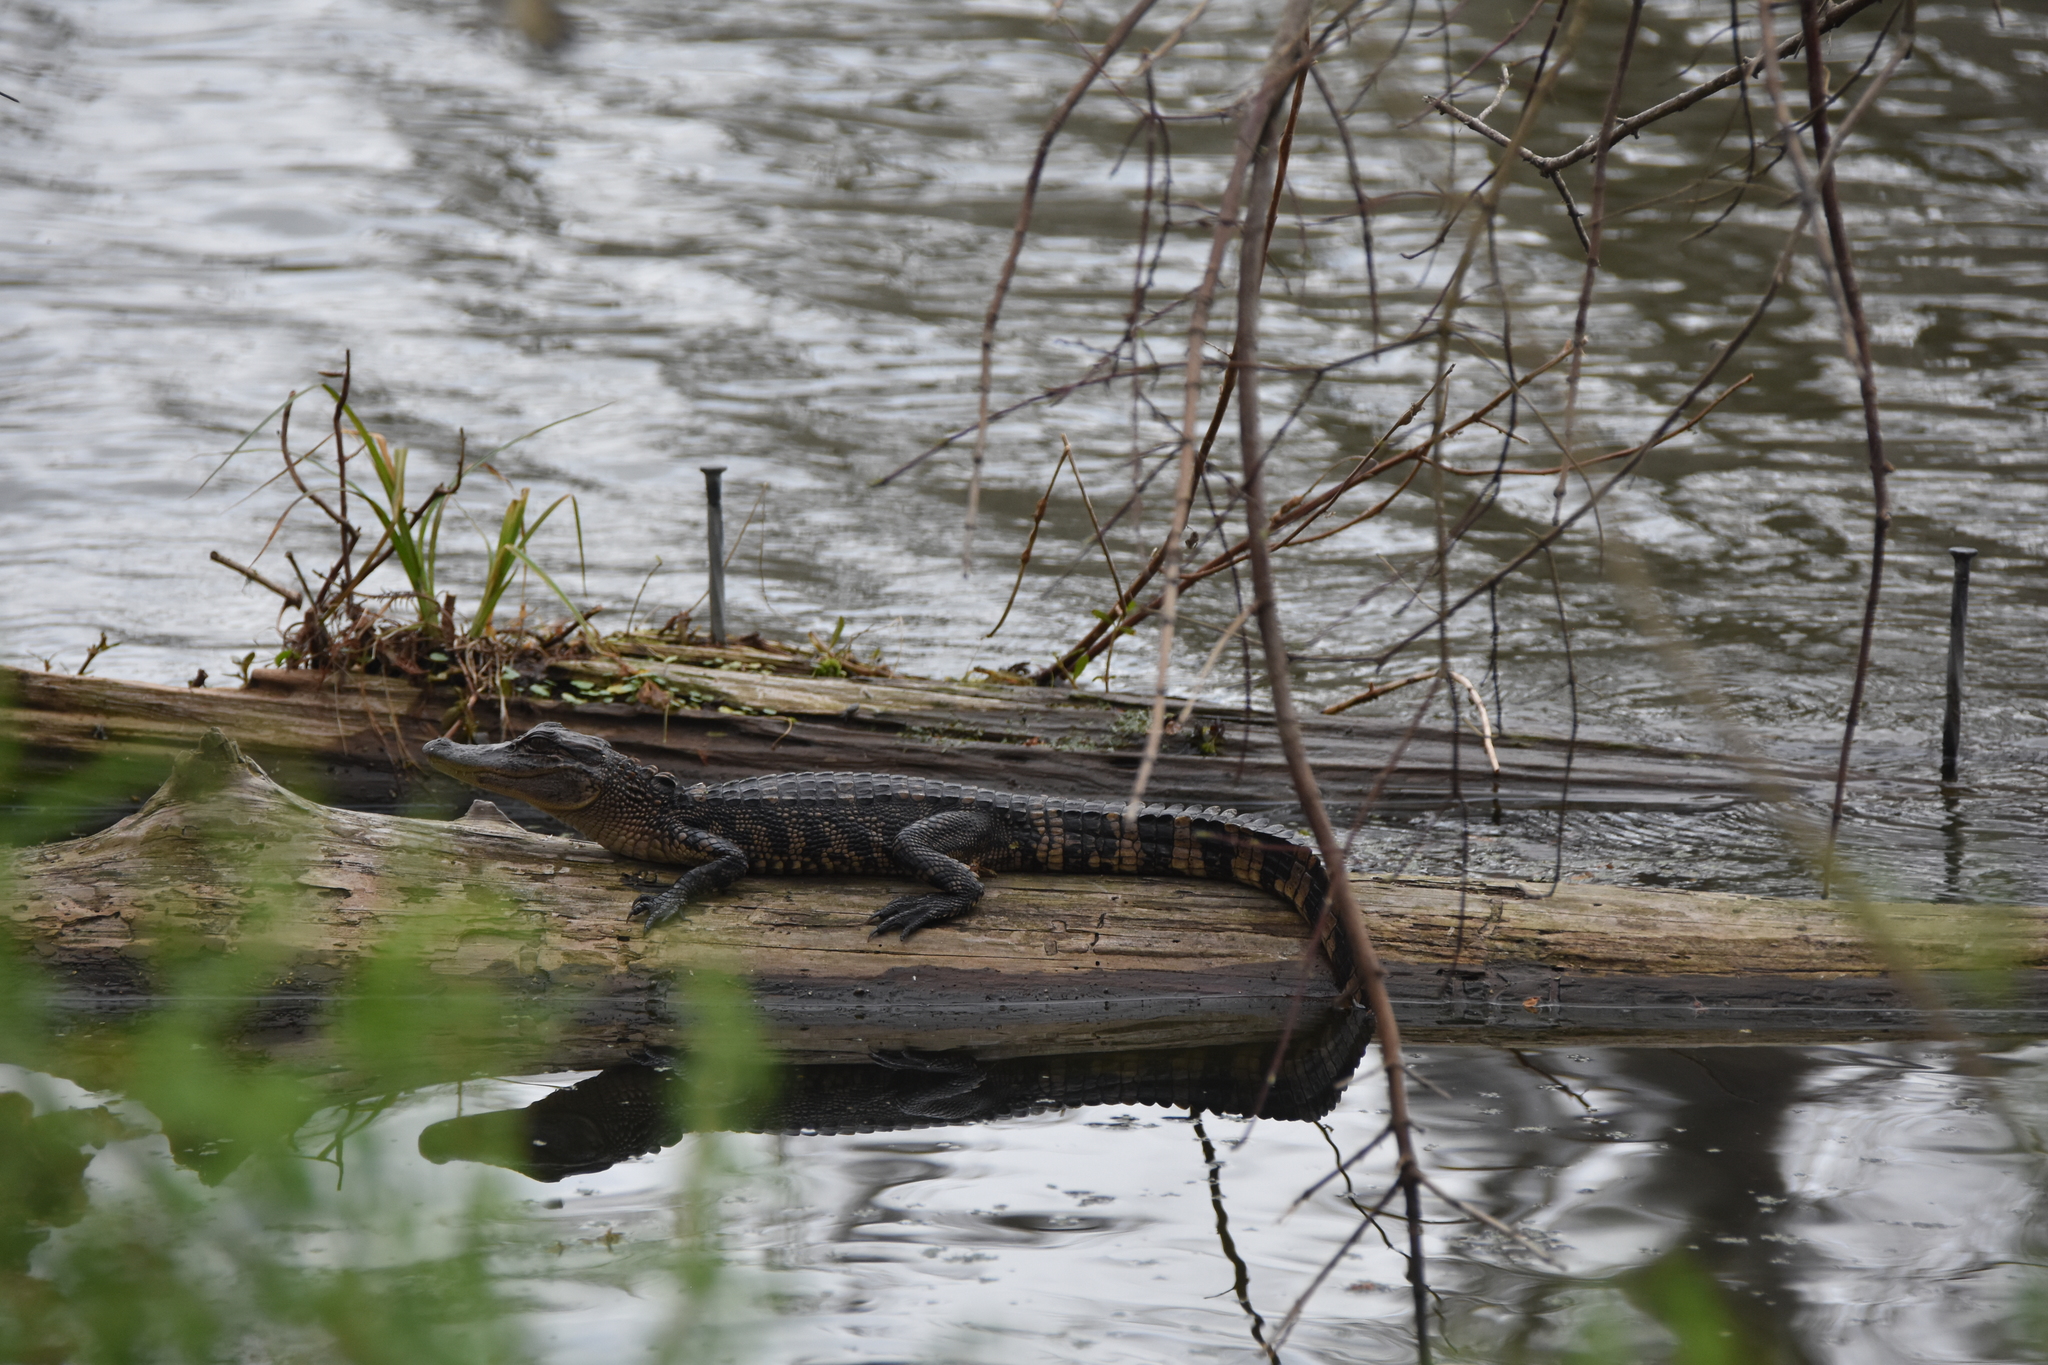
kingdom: Animalia
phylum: Chordata
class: Crocodylia
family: Alligatoridae
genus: Alligator
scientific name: Alligator mississippiensis
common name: American alligator
